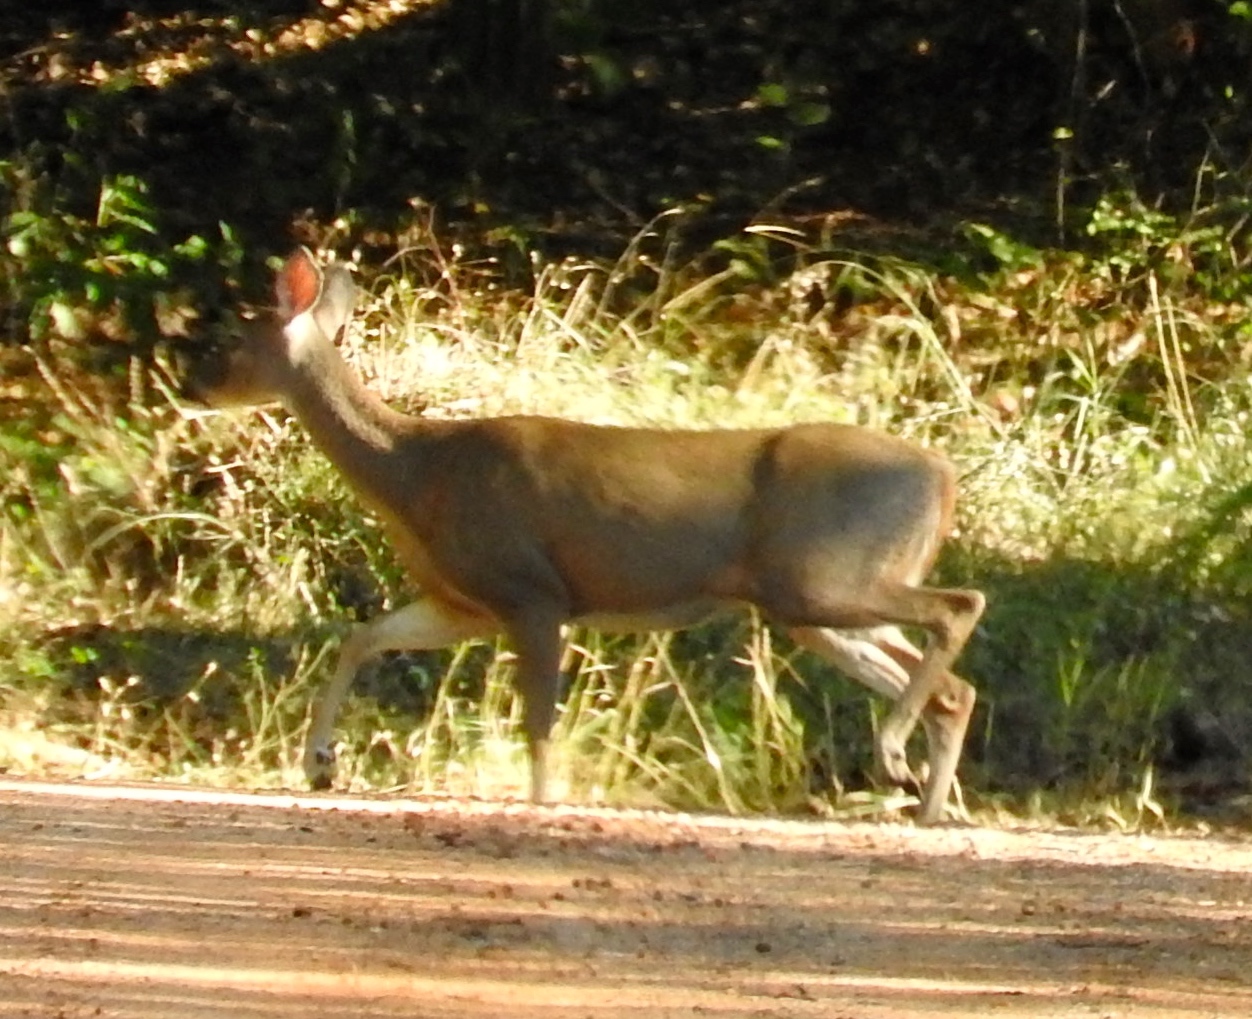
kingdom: Animalia
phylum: Chordata
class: Mammalia
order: Artiodactyla
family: Cervidae
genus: Odocoileus
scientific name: Odocoileus virginianus
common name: White-tailed deer
